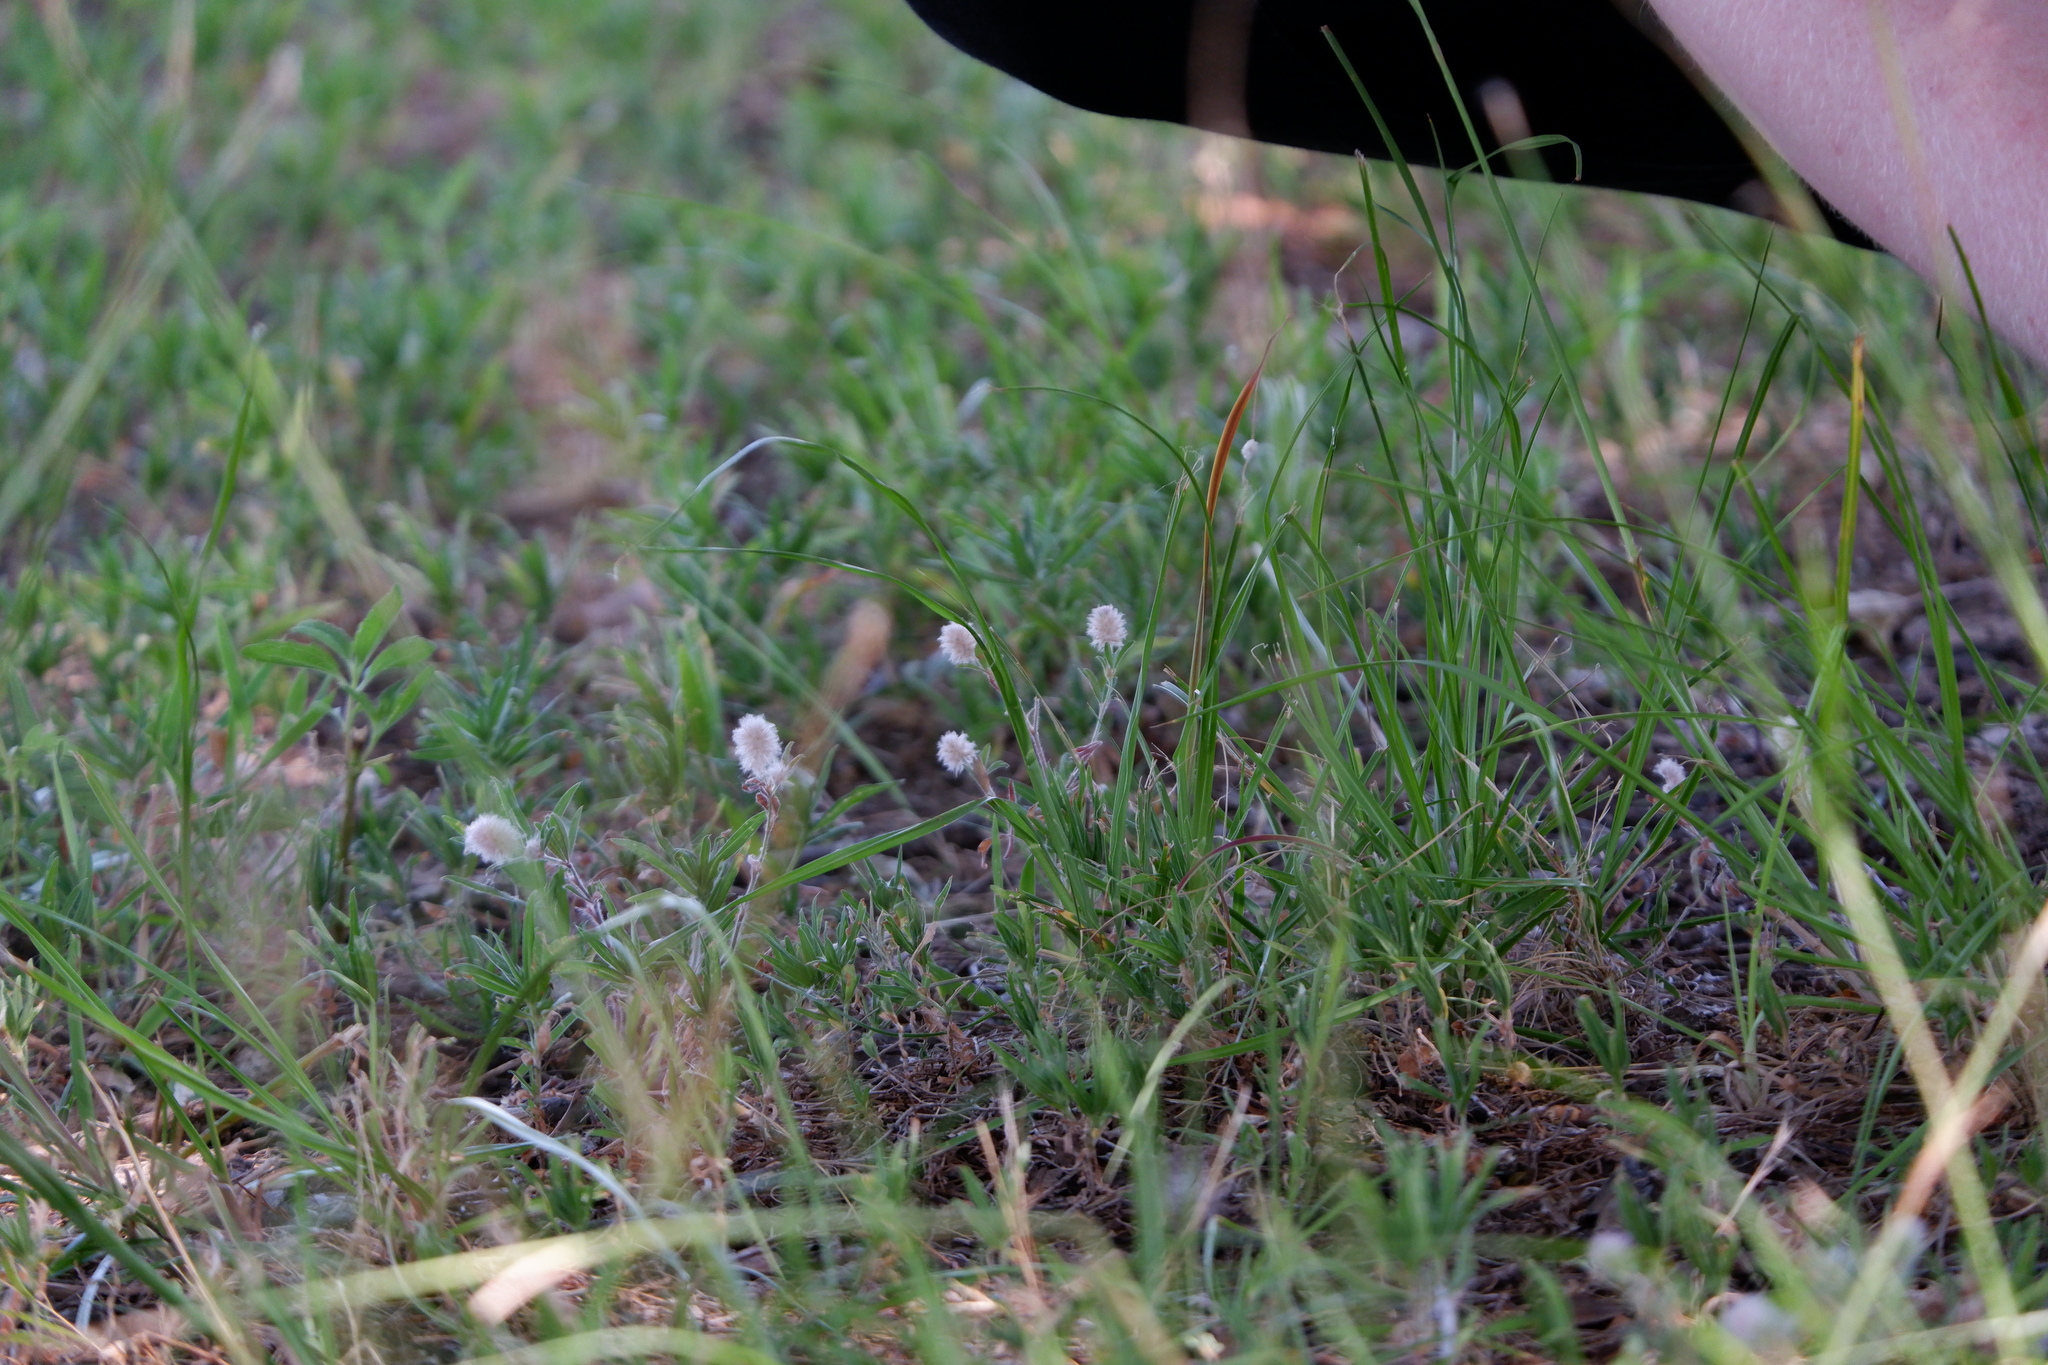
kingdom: Plantae
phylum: Tracheophyta
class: Magnoliopsida
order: Fabales
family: Fabaceae
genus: Trifolium
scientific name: Trifolium arvense
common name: Hare's-foot clover
